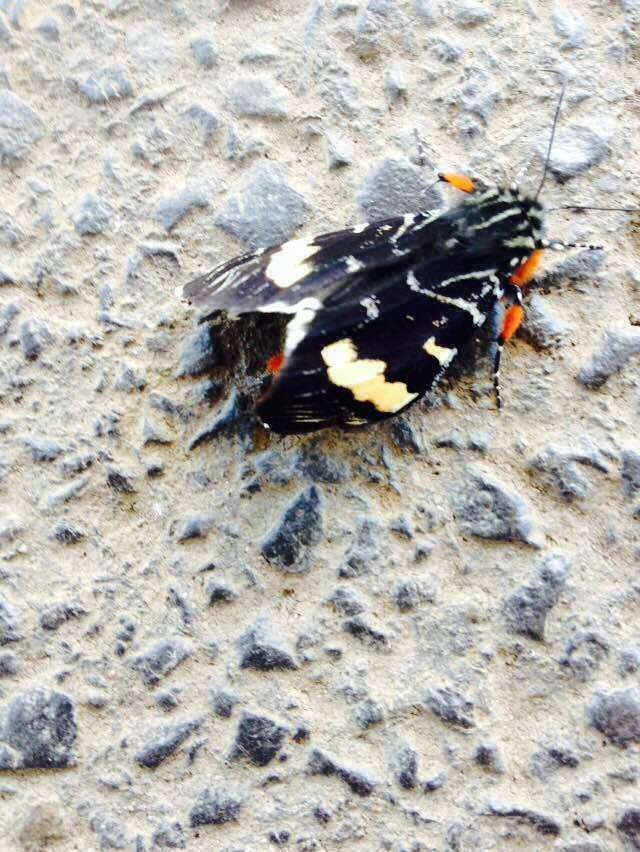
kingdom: Animalia
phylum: Arthropoda
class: Insecta
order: Lepidoptera
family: Noctuidae
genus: Phalaenoides
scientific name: Phalaenoides glycinae
